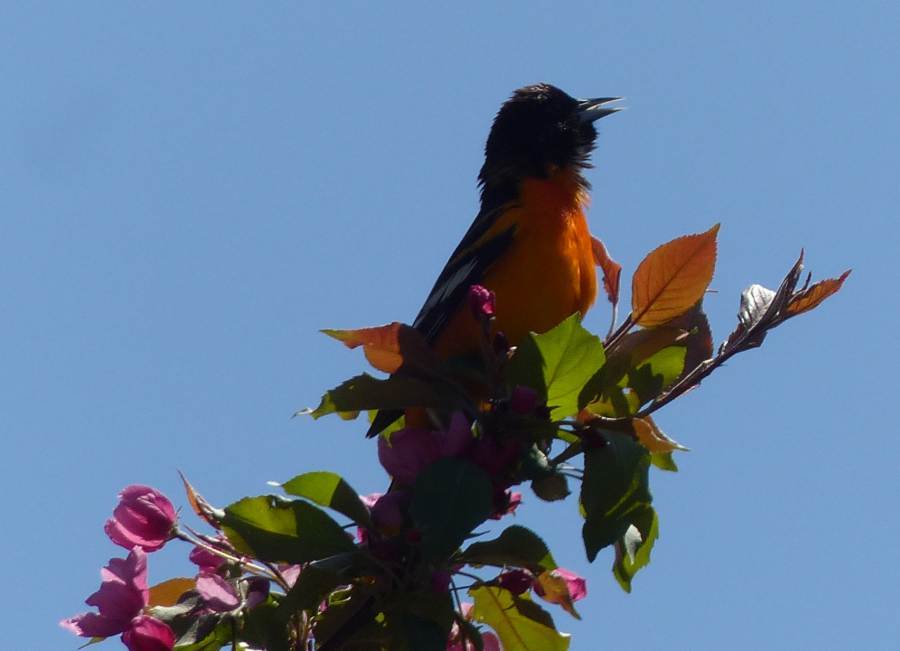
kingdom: Animalia
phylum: Chordata
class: Aves
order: Passeriformes
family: Icteridae
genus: Icterus
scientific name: Icterus galbula
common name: Baltimore oriole
